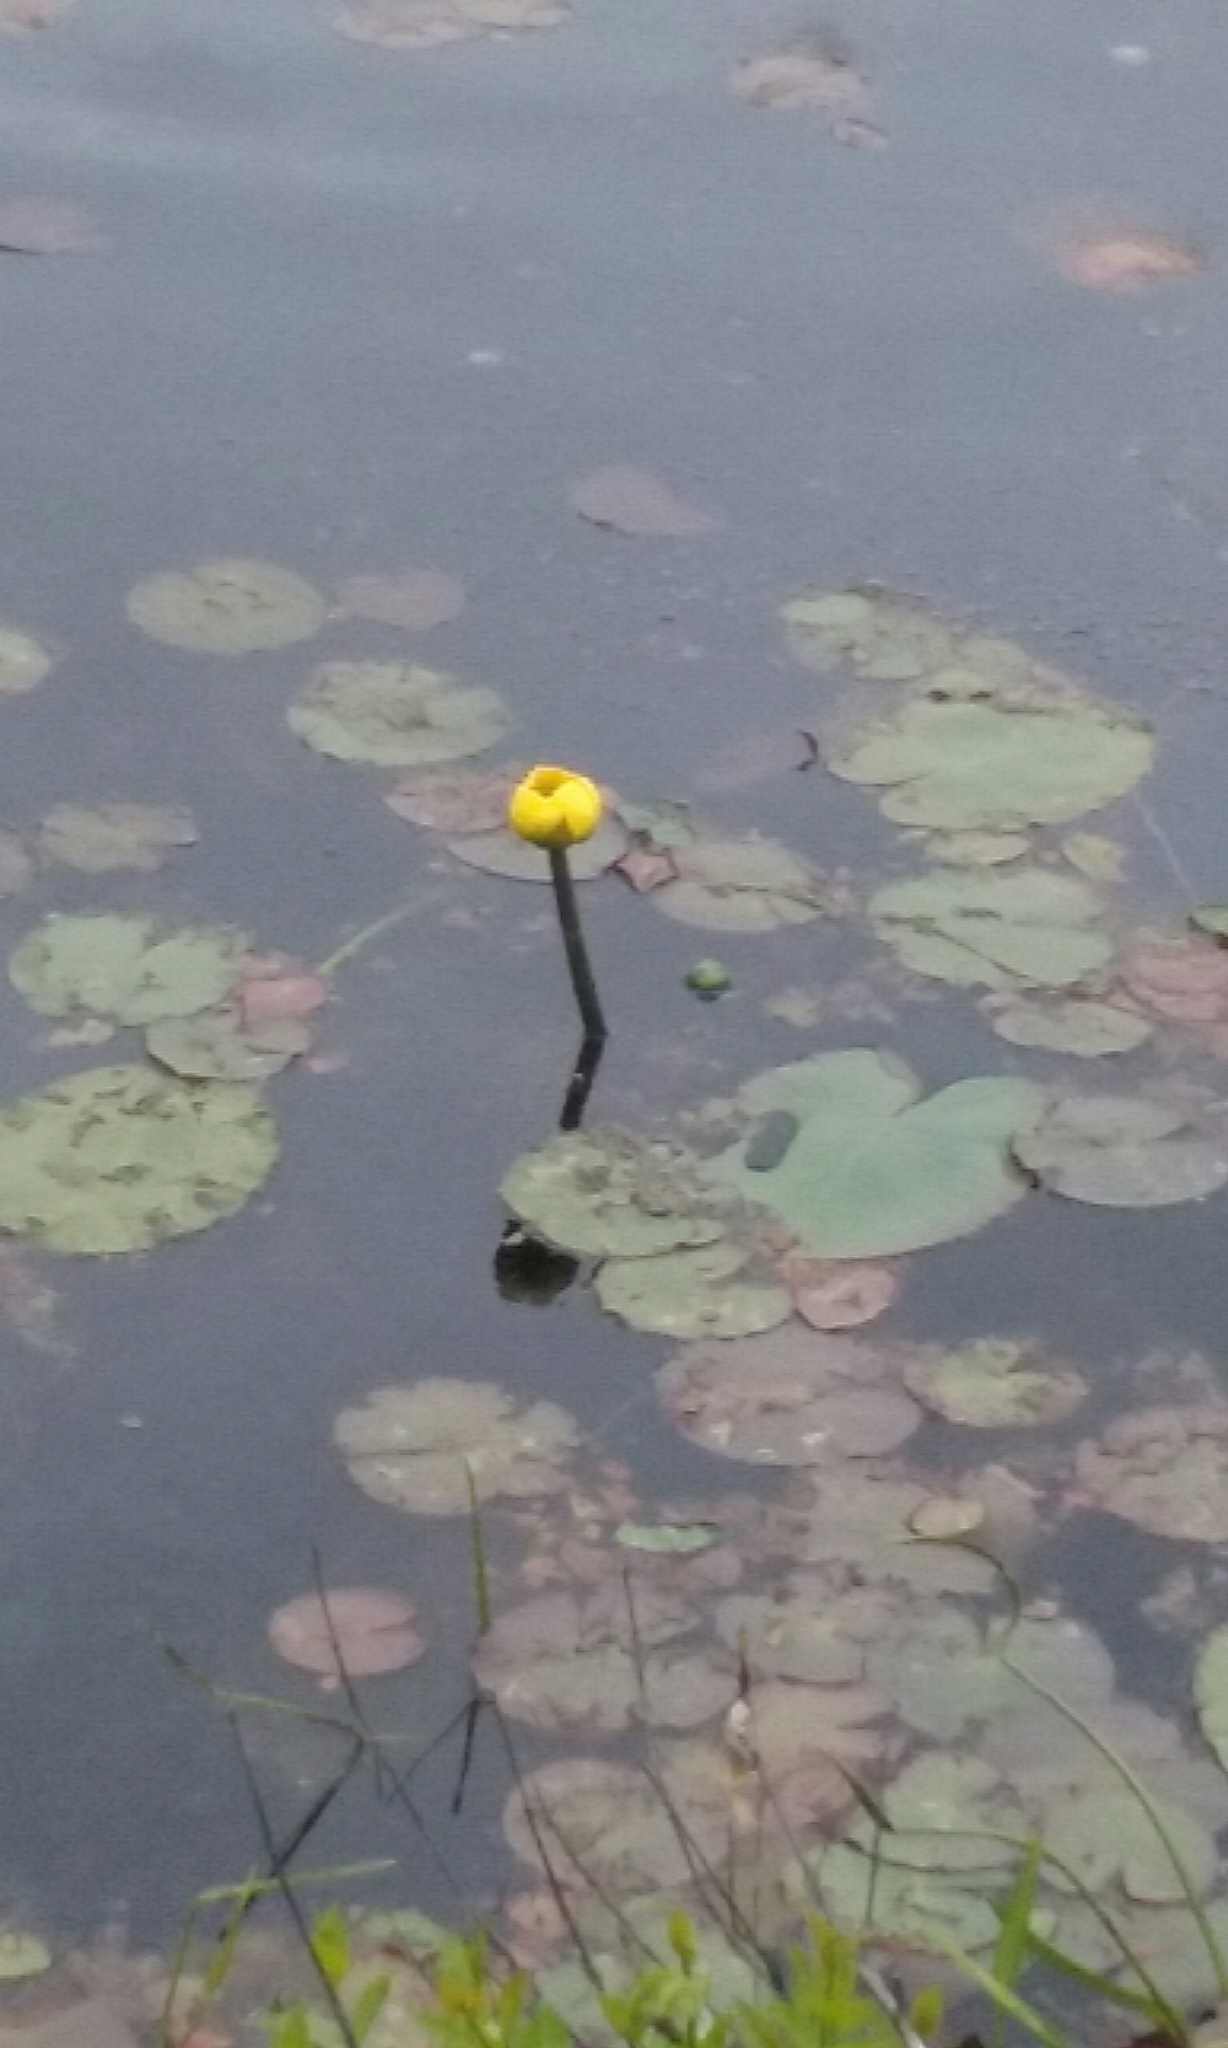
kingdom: Plantae
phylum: Tracheophyta
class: Magnoliopsida
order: Nymphaeales
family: Nymphaeaceae
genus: Nuphar
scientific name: Nuphar advena
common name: Spatter-dock
